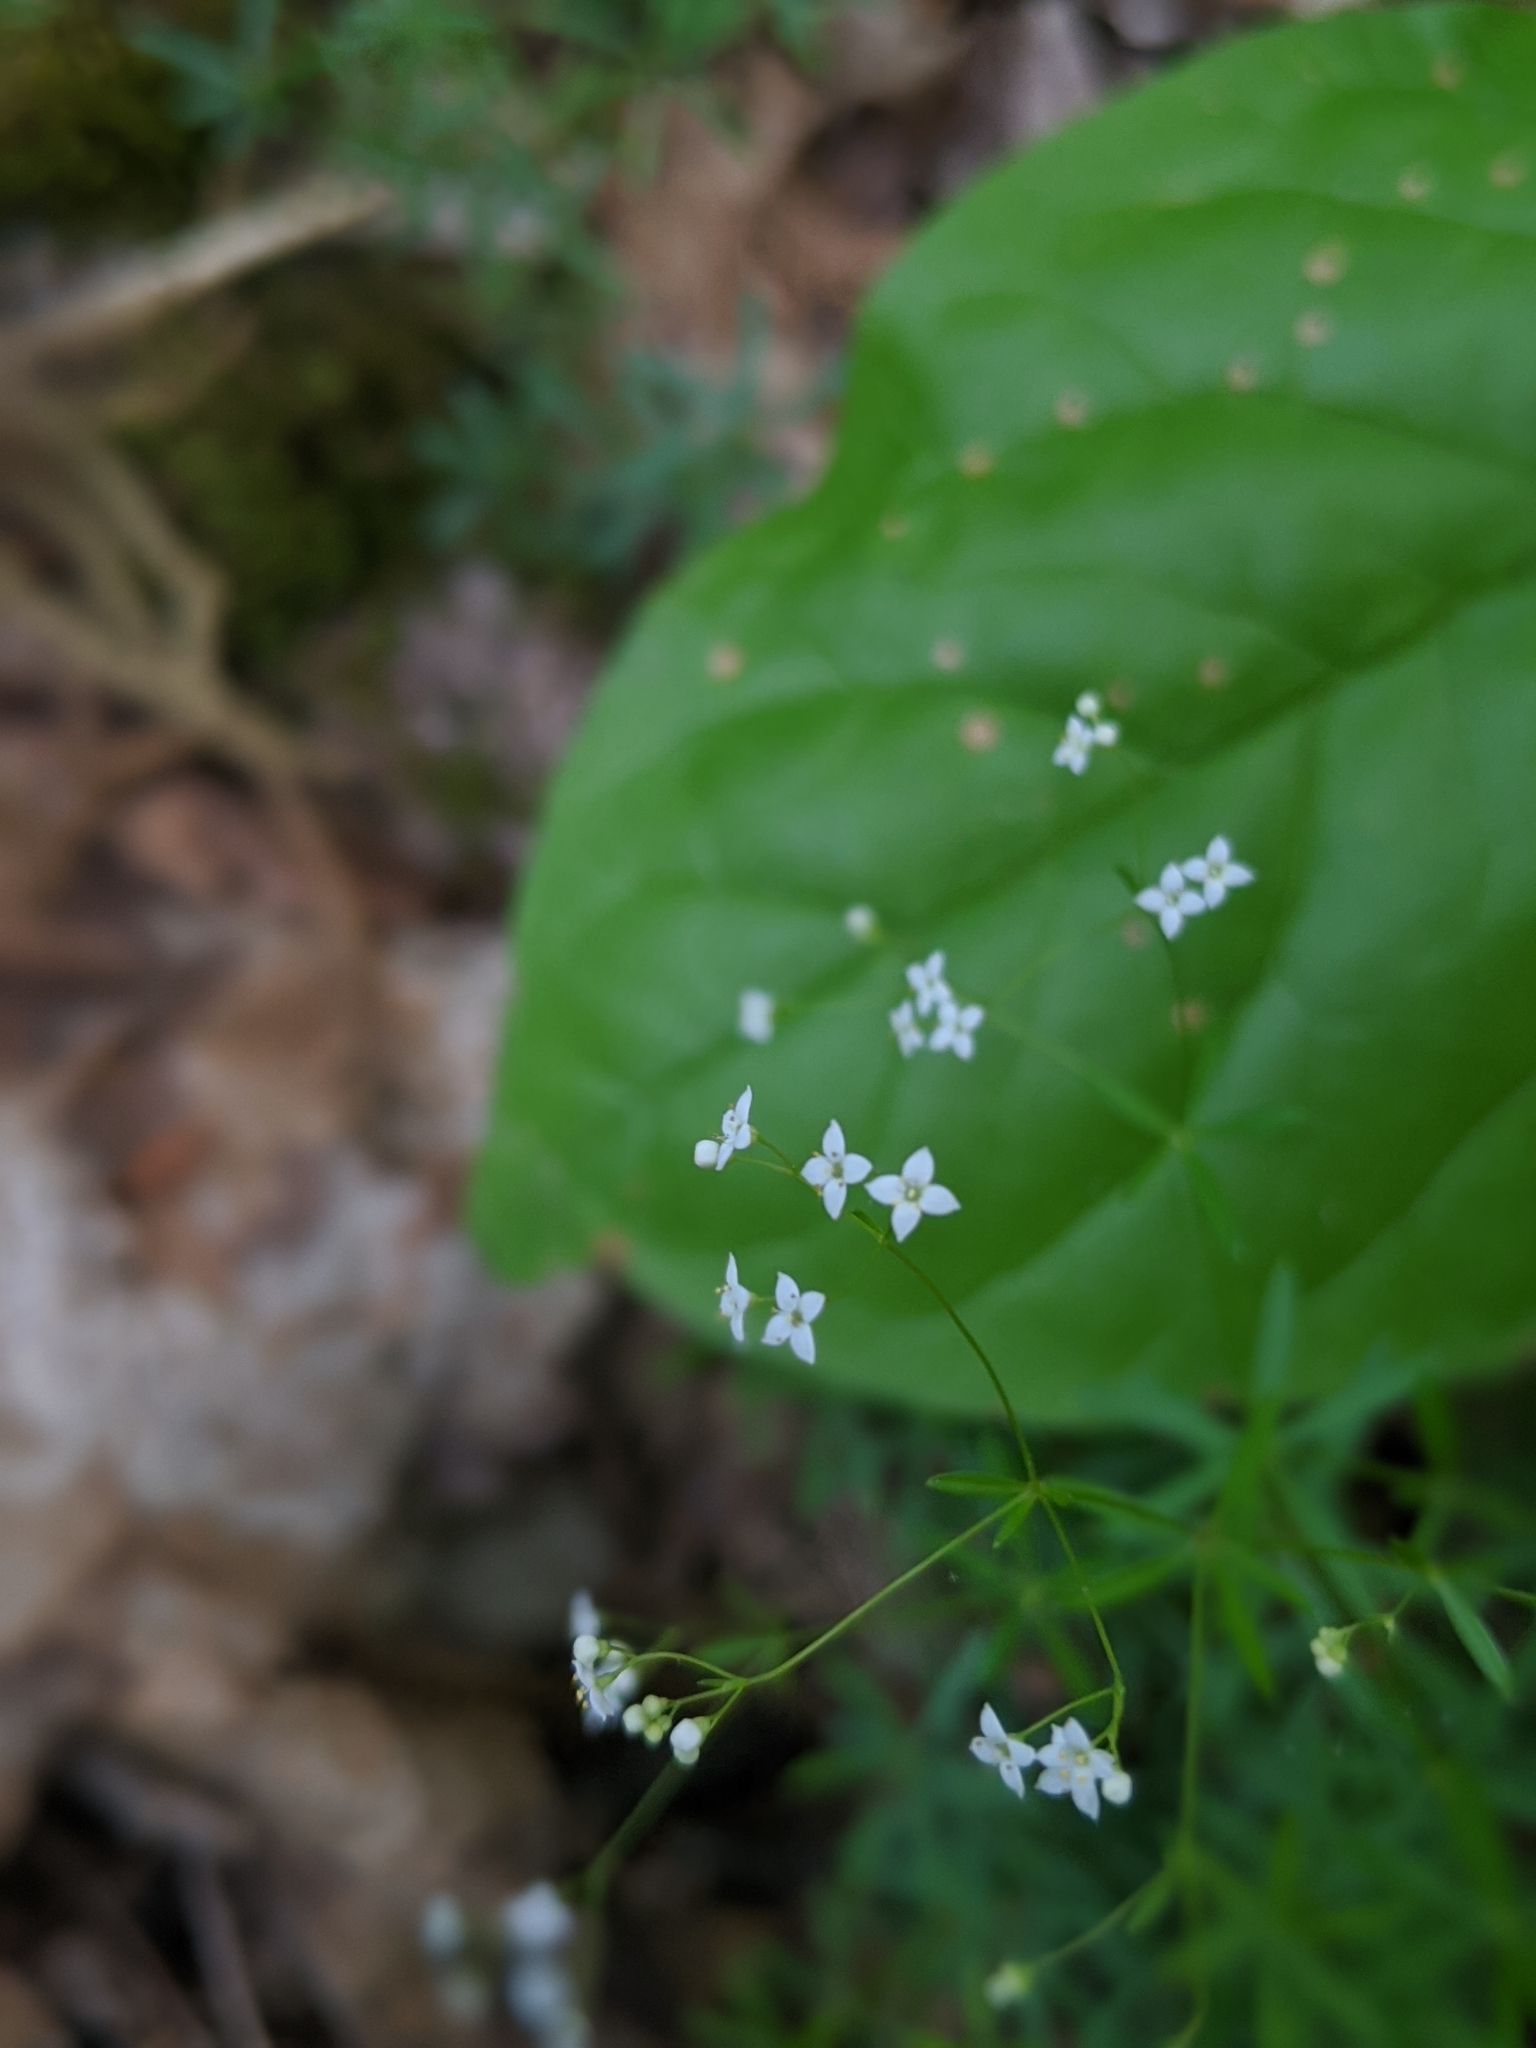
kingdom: Plantae
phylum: Tracheophyta
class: Magnoliopsida
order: Gentianales
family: Rubiaceae
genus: Galium
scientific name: Galium concinnum
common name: Shining bedstraw
